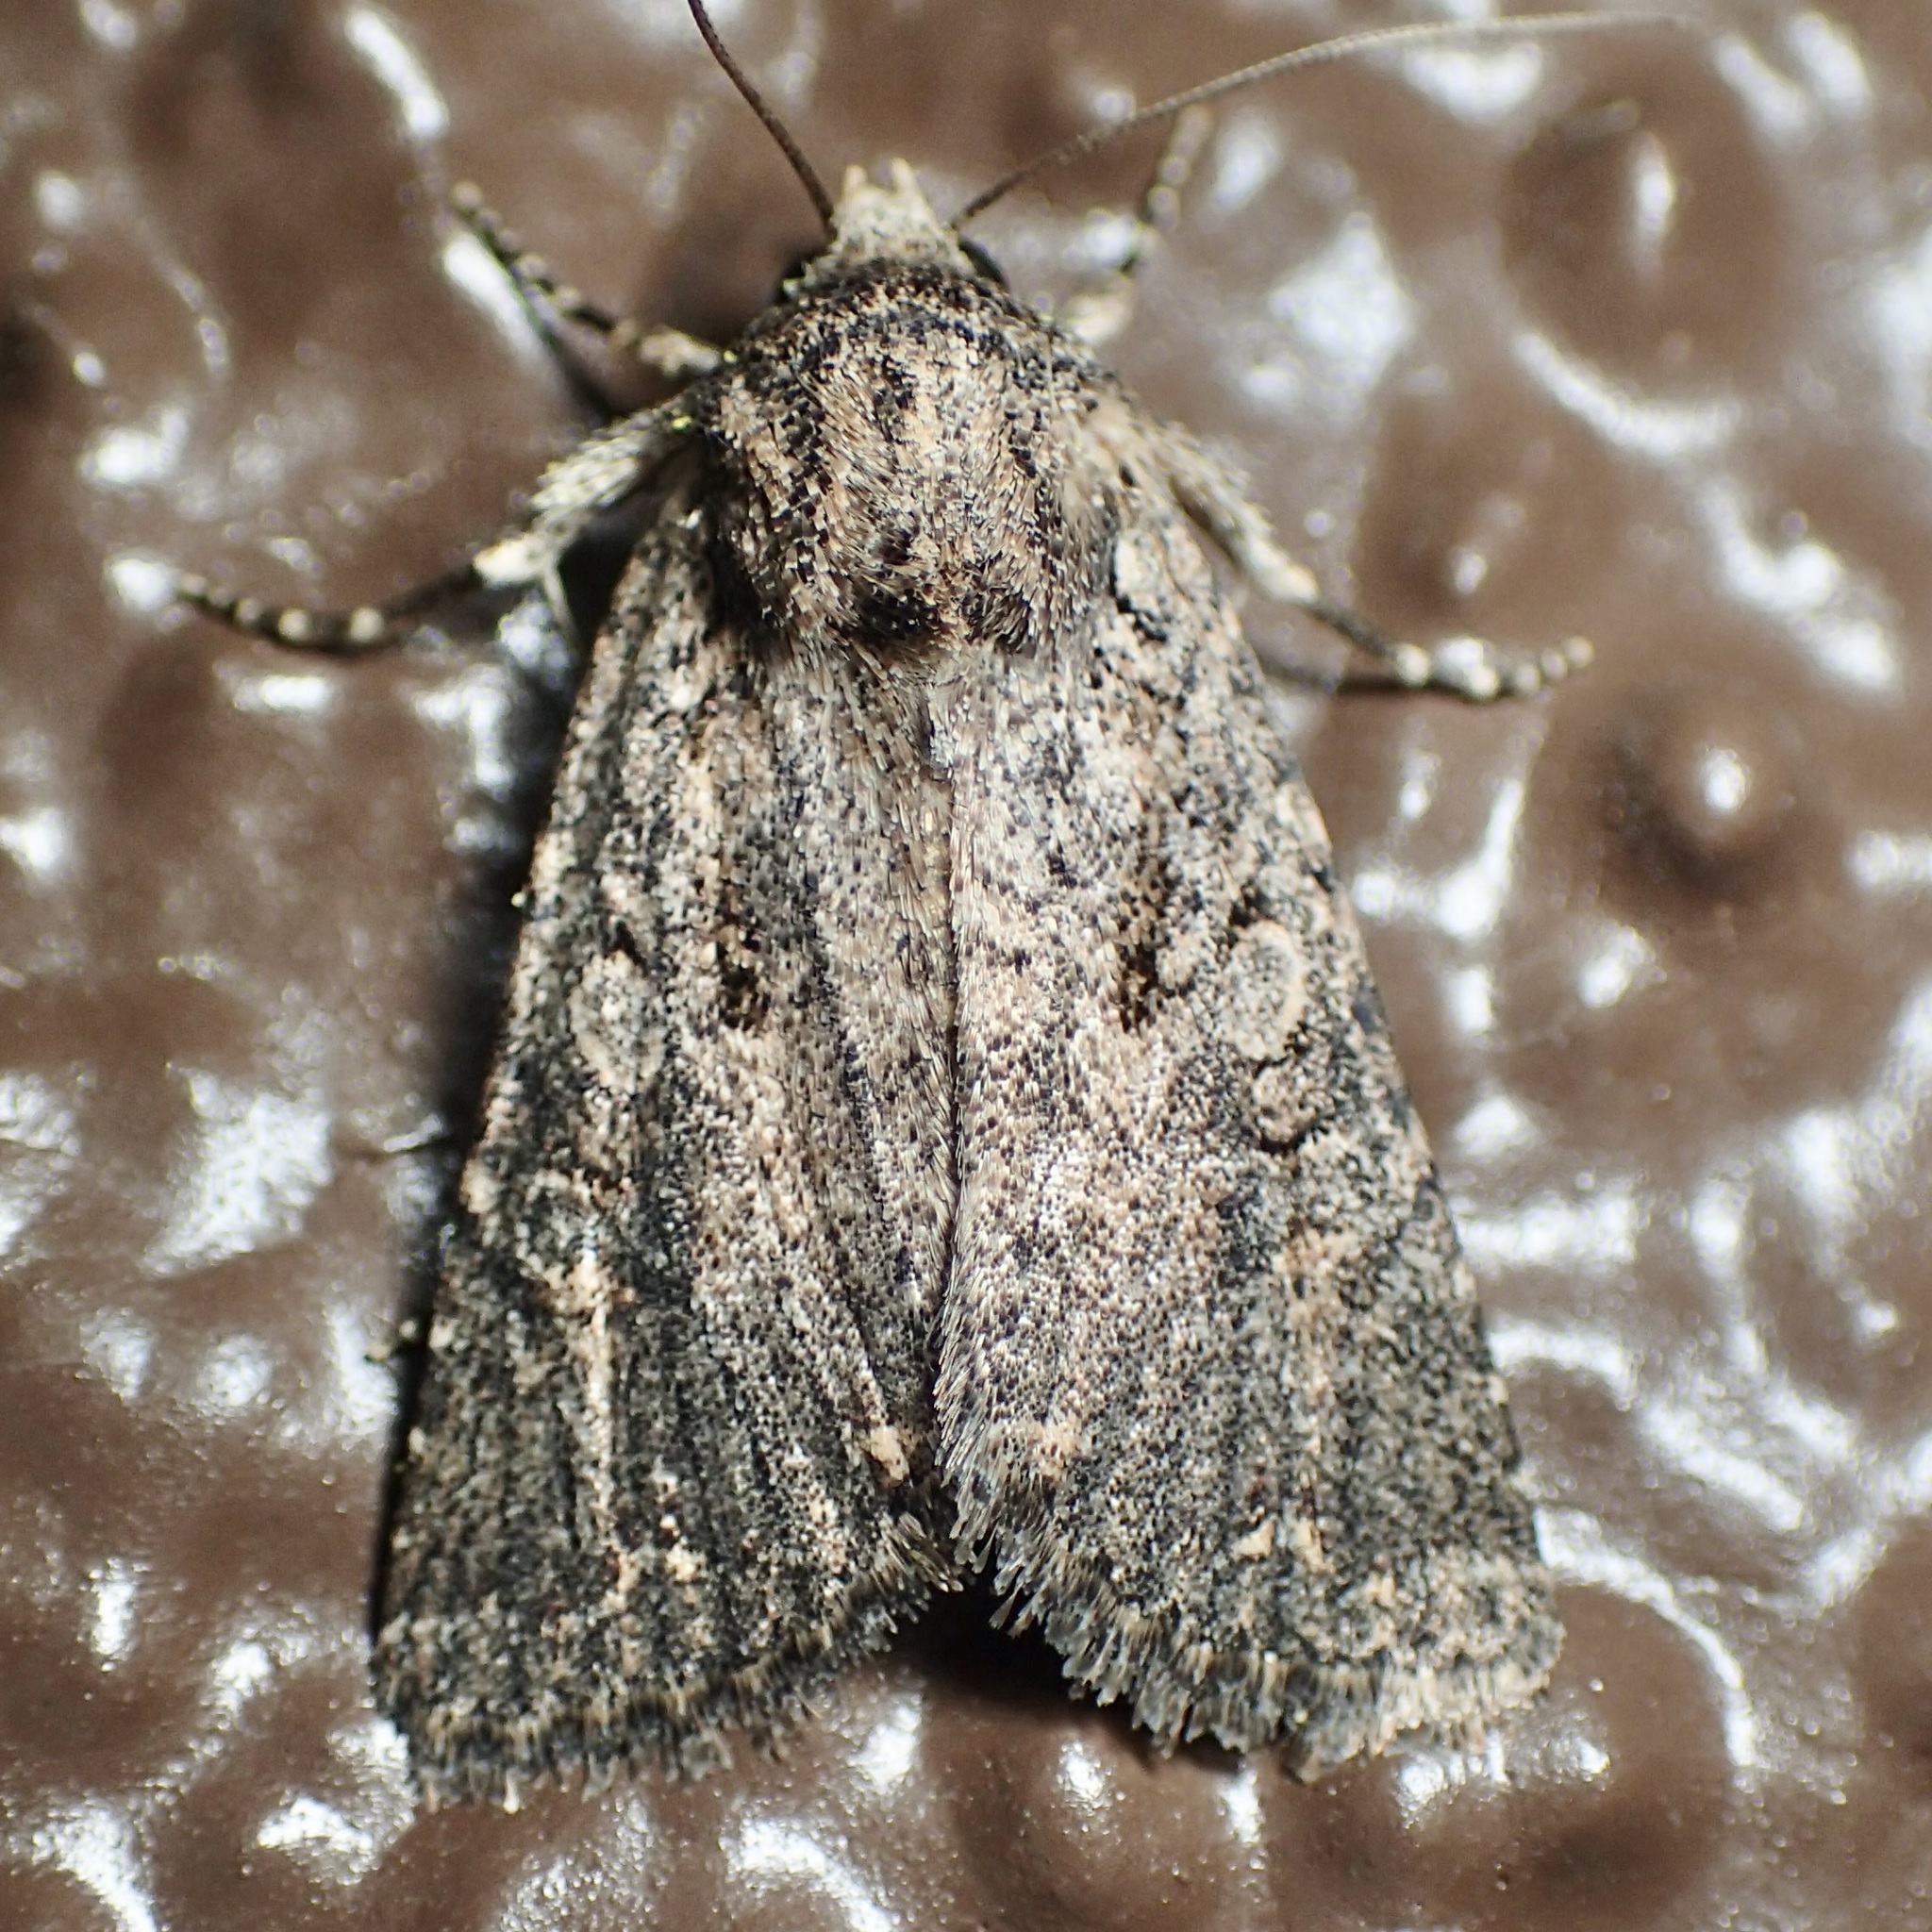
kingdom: Animalia
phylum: Arthropoda
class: Insecta
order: Lepidoptera
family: Noctuidae
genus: Trichopolia
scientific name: Trichopolia
